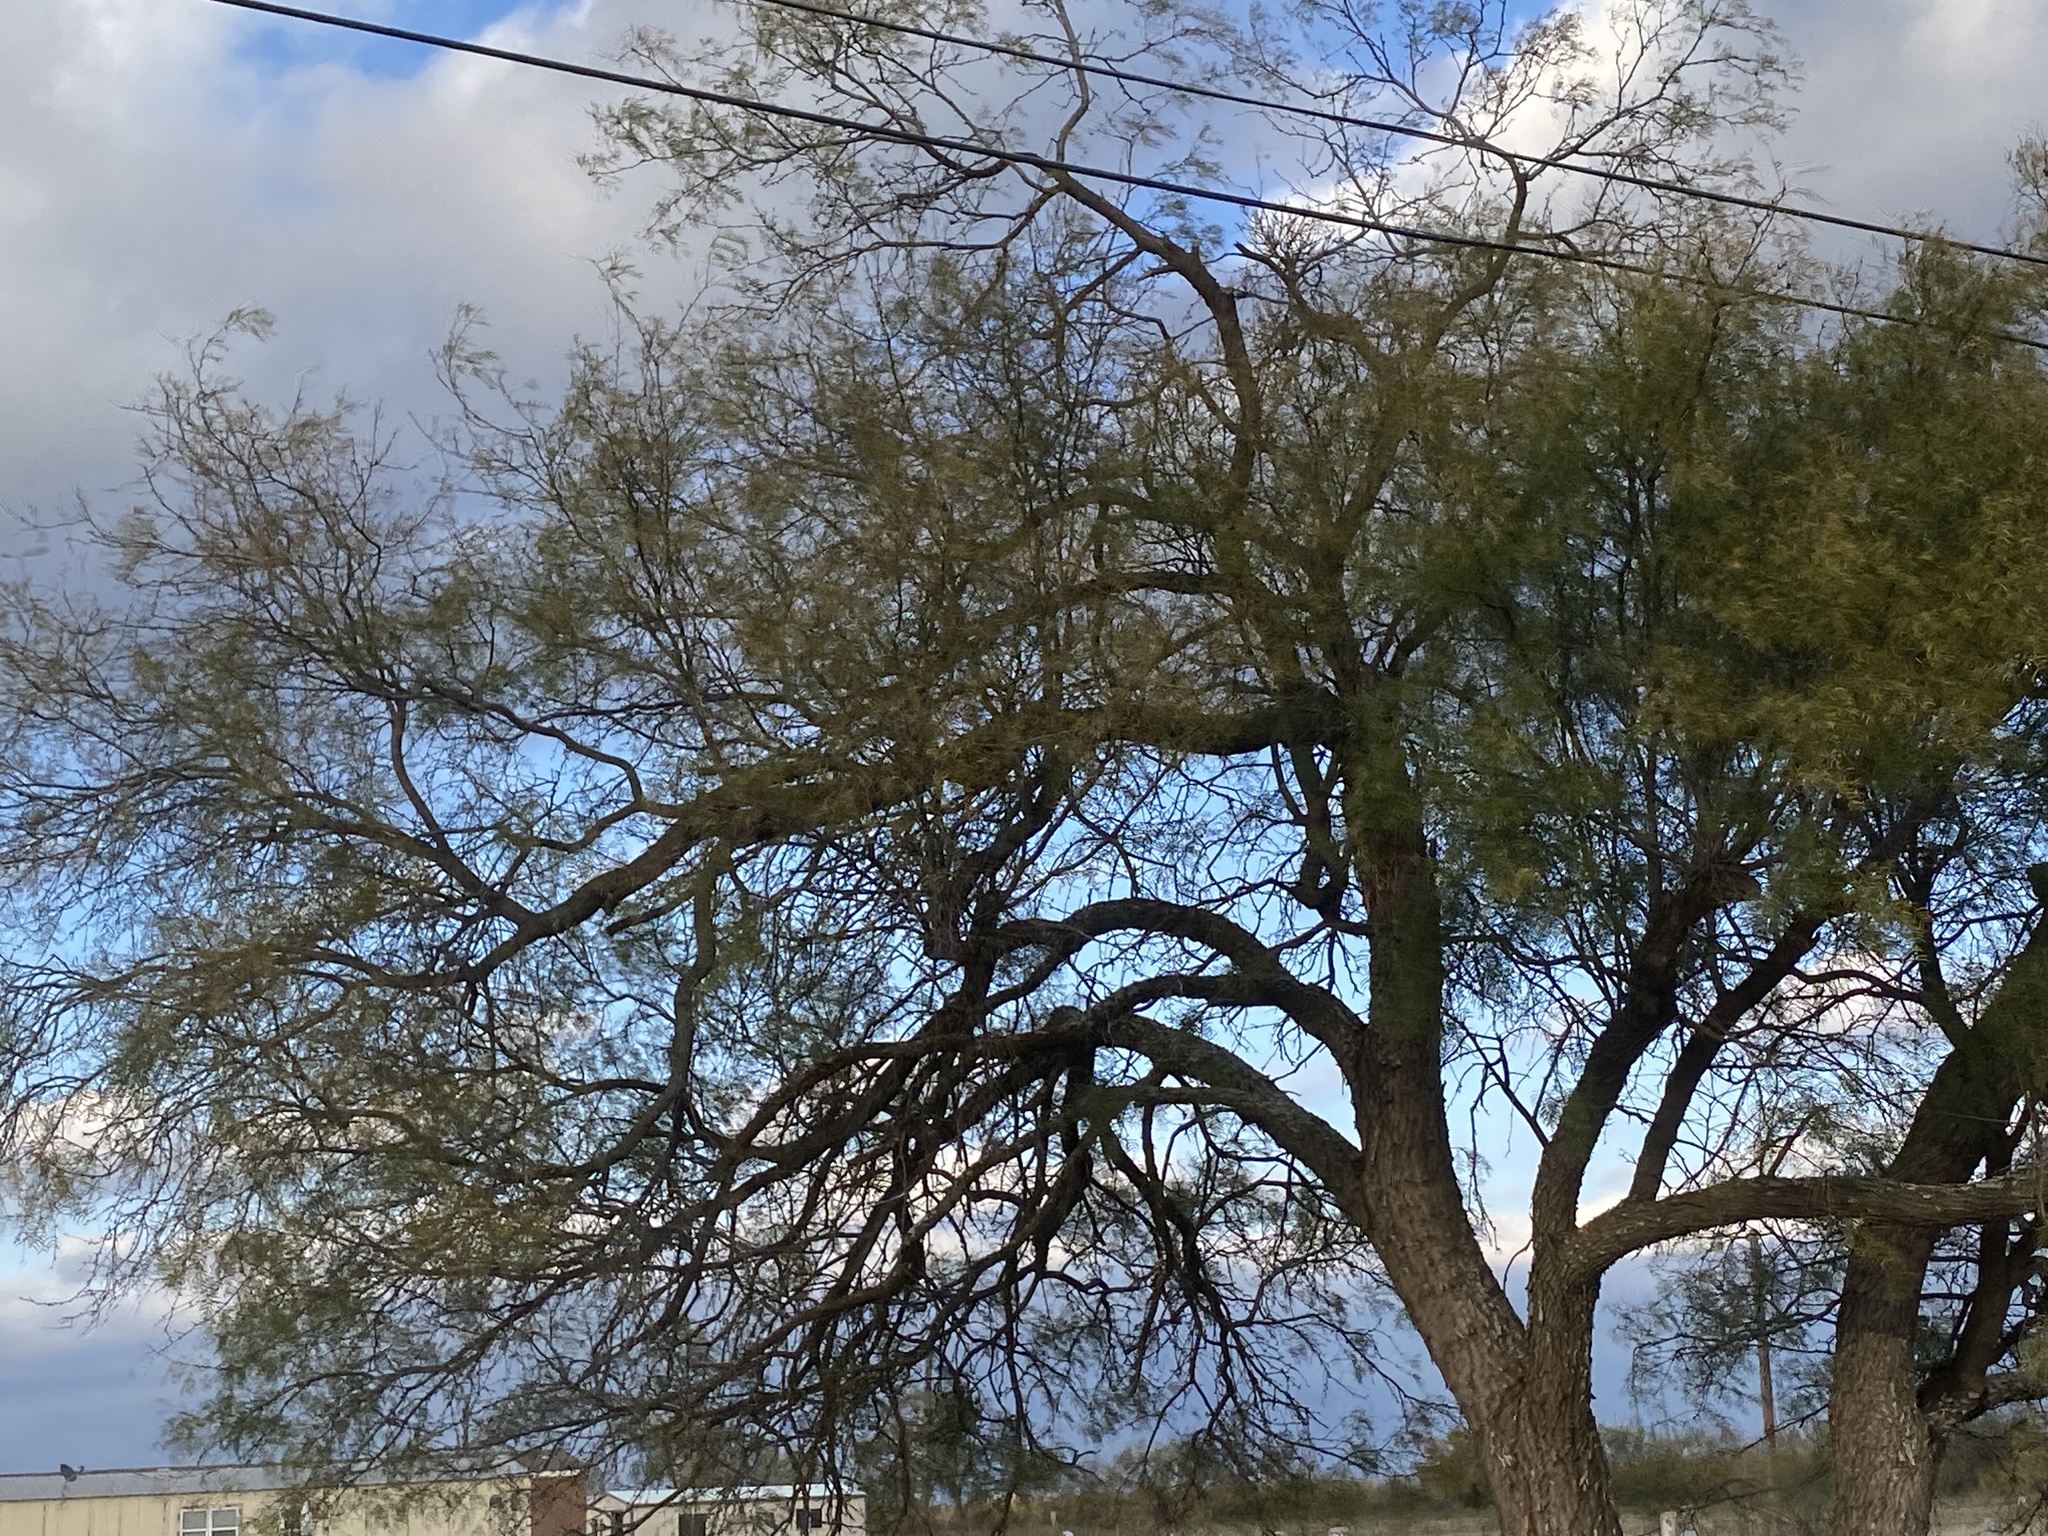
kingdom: Plantae
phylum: Tracheophyta
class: Magnoliopsida
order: Fabales
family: Fabaceae
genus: Prosopis
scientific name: Prosopis glandulosa
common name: Honey mesquite
